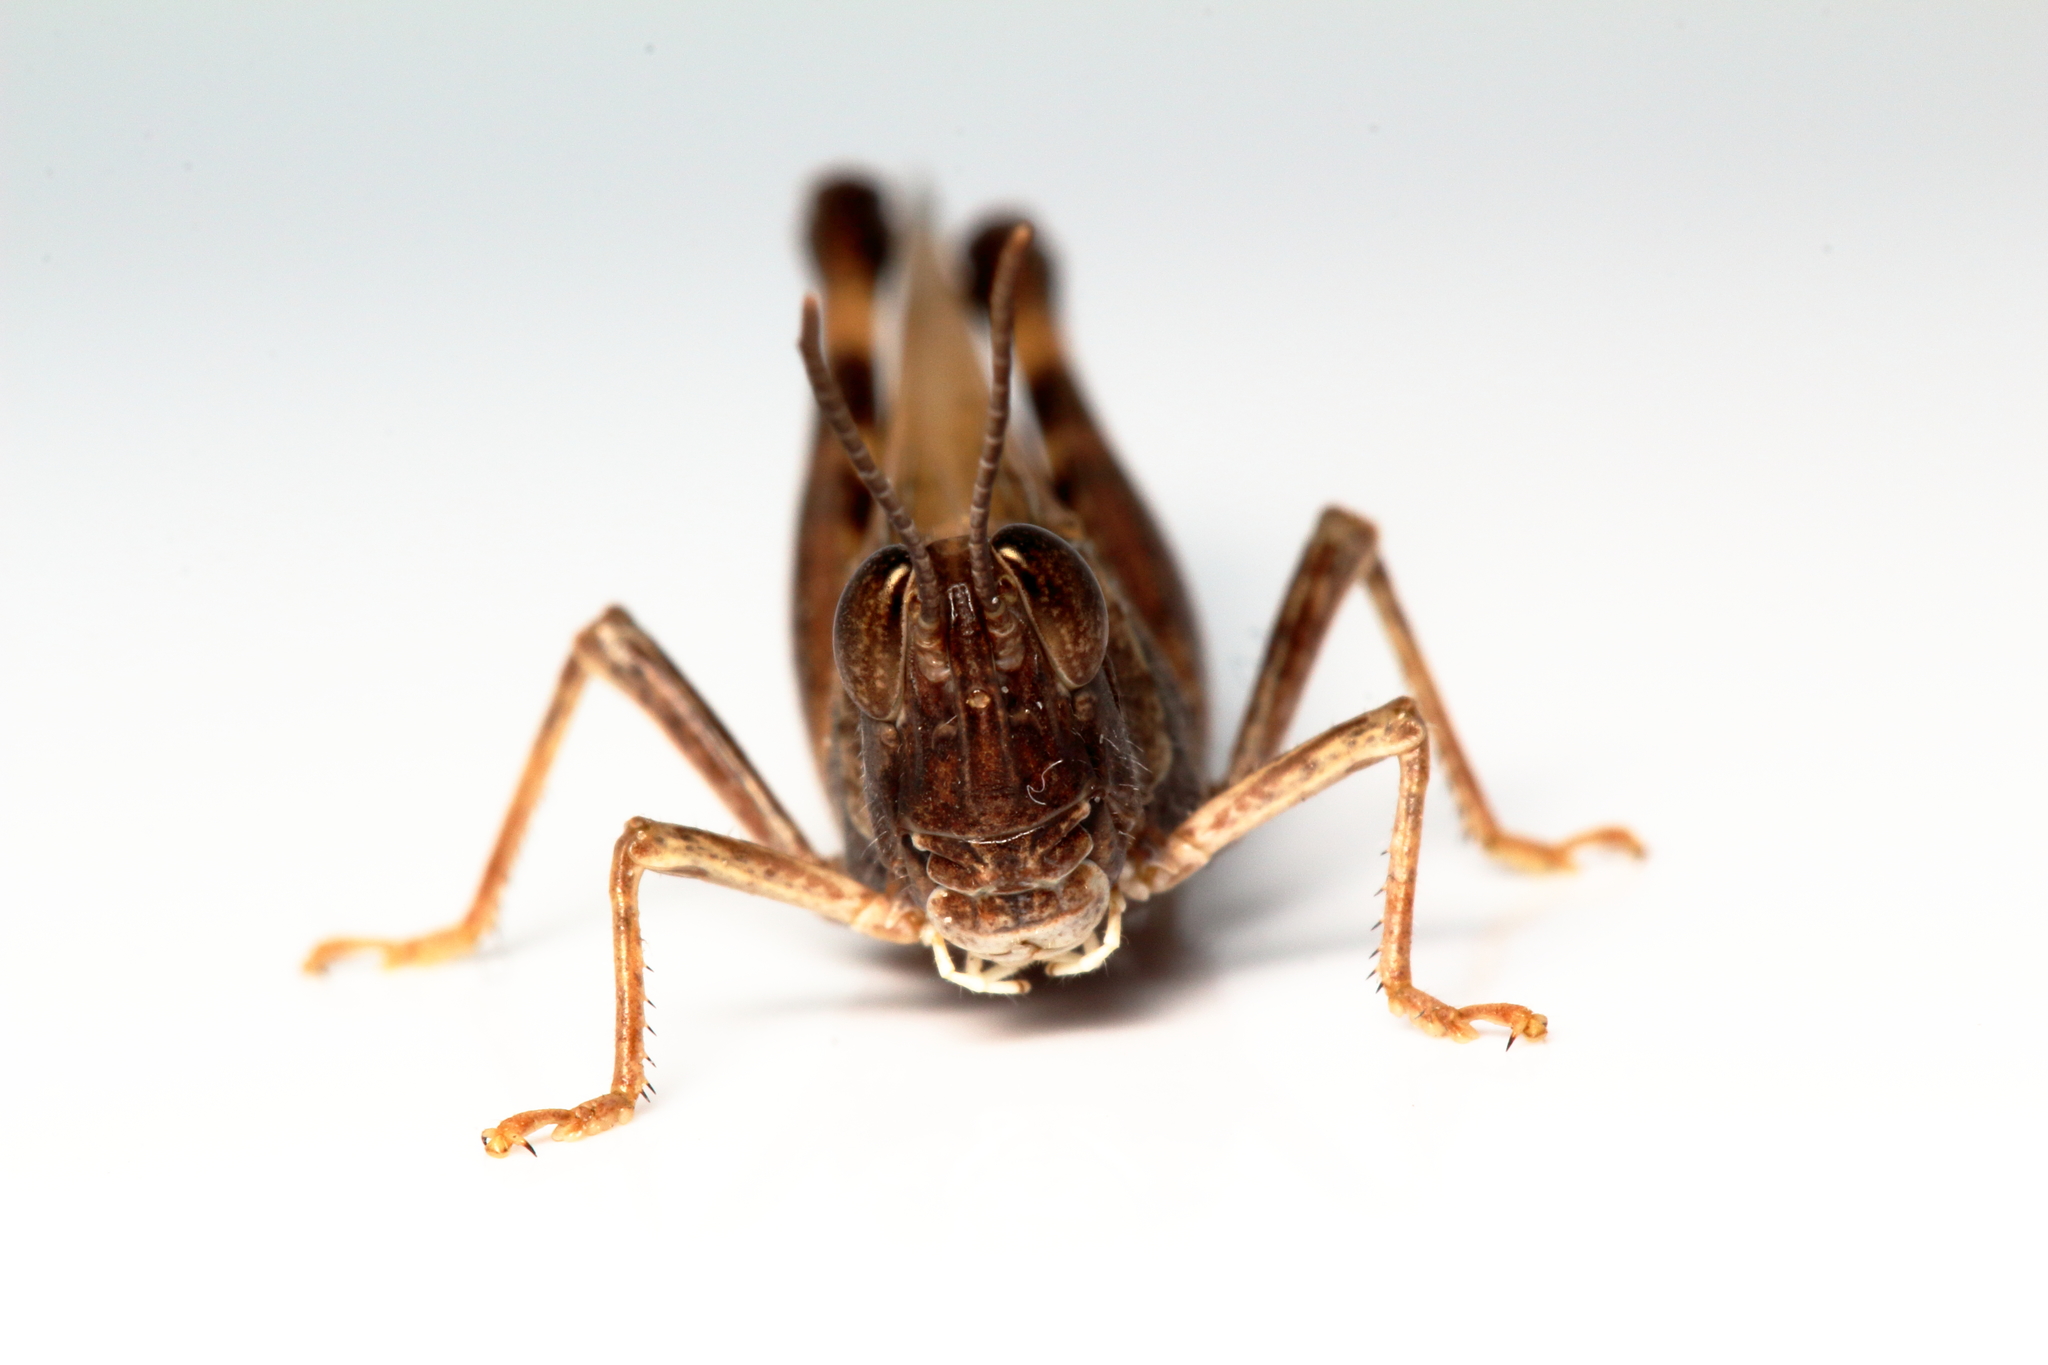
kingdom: Animalia
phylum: Arthropoda
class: Insecta
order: Orthoptera
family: Acrididae
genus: Chortoicetes
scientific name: Chortoicetes terminifera
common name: Australian plague locust
